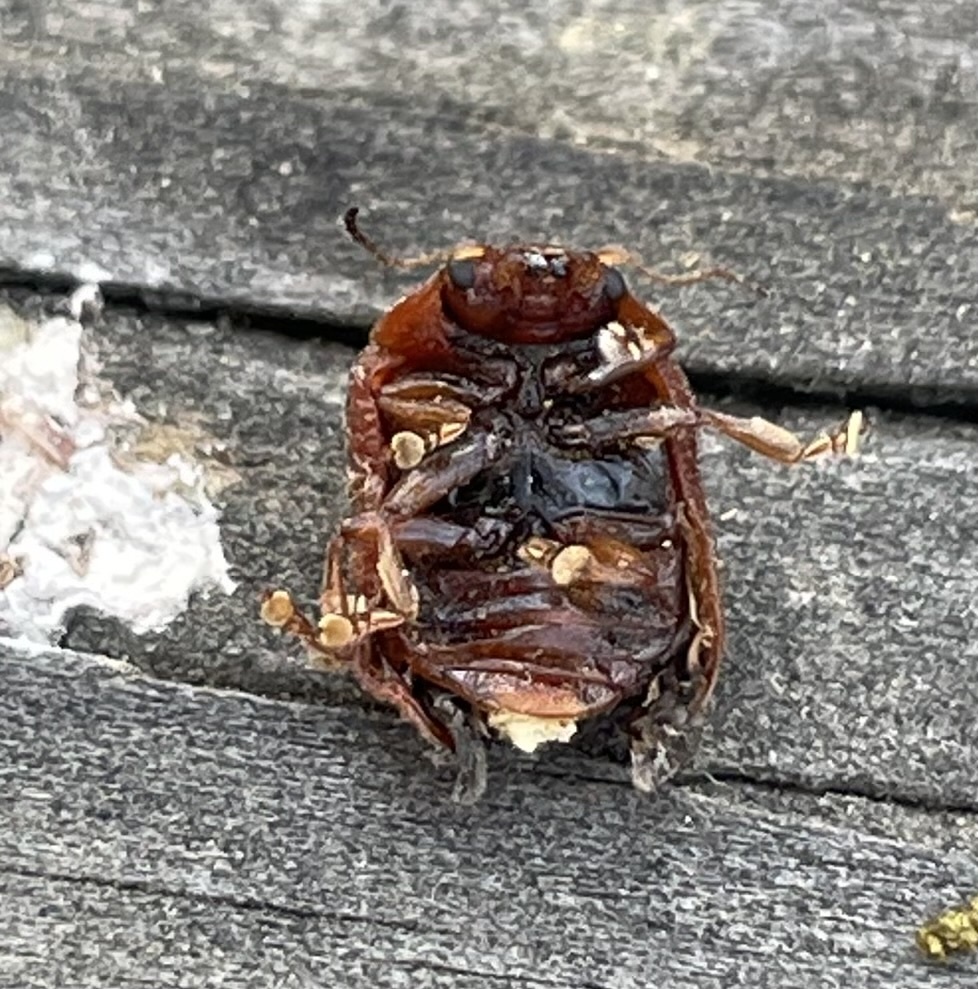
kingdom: Animalia
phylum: Arthropoda
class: Insecta
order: Coleoptera
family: Chrysomelidae
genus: Trachymela
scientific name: Trachymela sloanei
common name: Australian tortoise beetle
